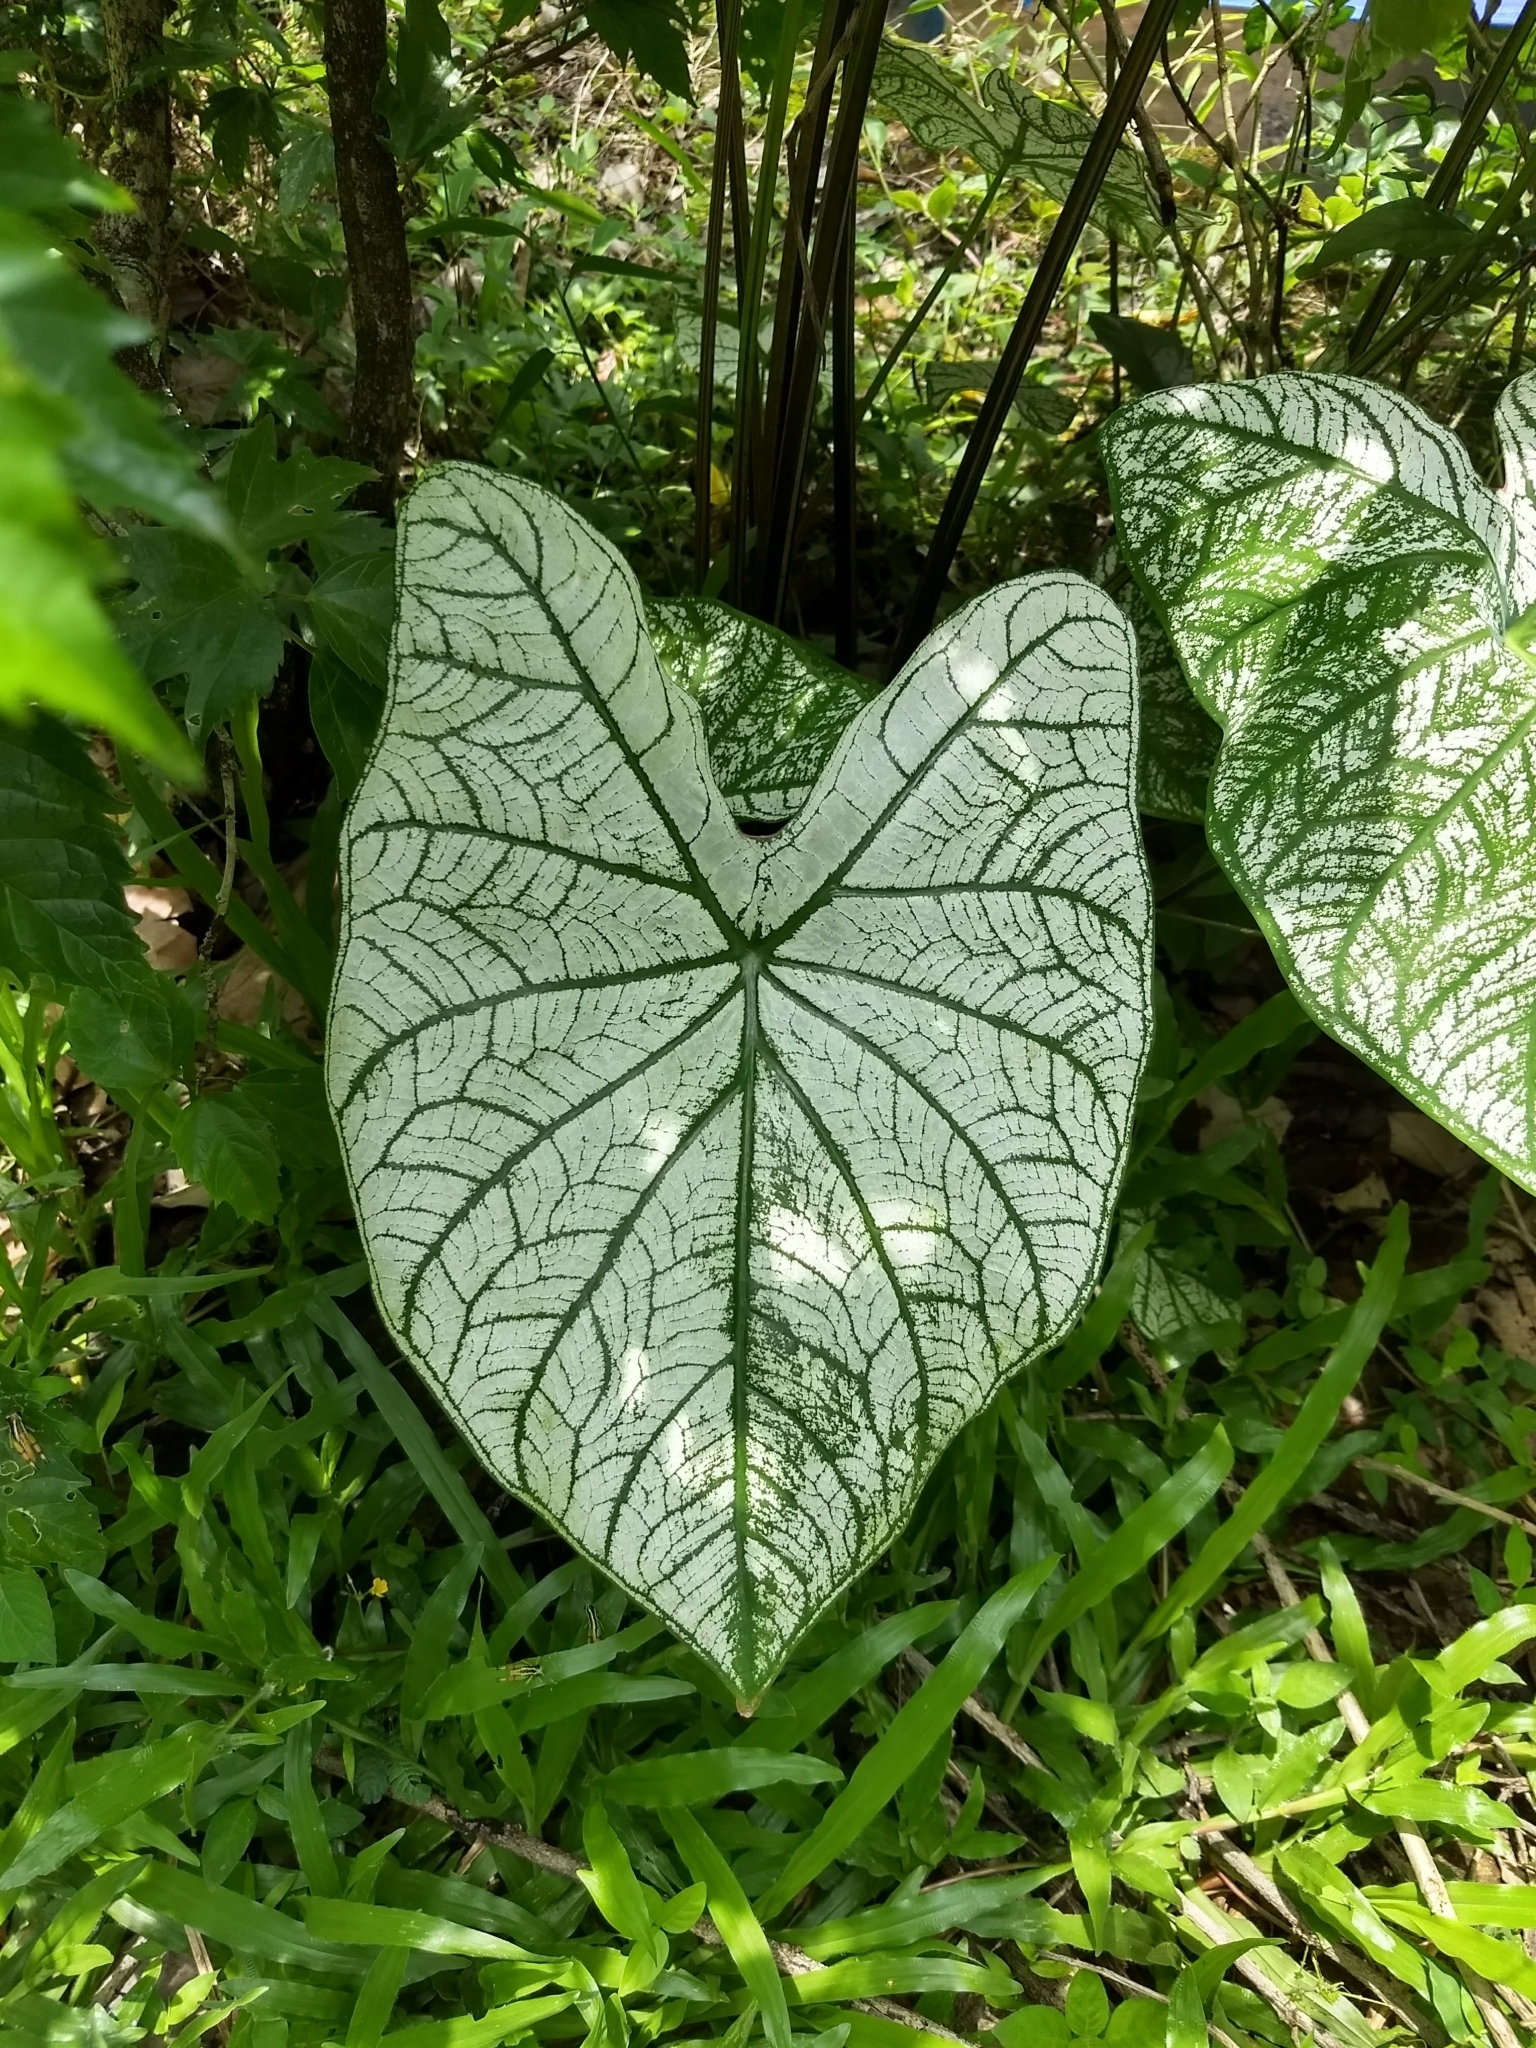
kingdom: Plantae
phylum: Tracheophyta
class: Liliopsida
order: Alismatales
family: Araceae
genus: Caladium
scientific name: Caladium bicolor
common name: Artist's pallet
